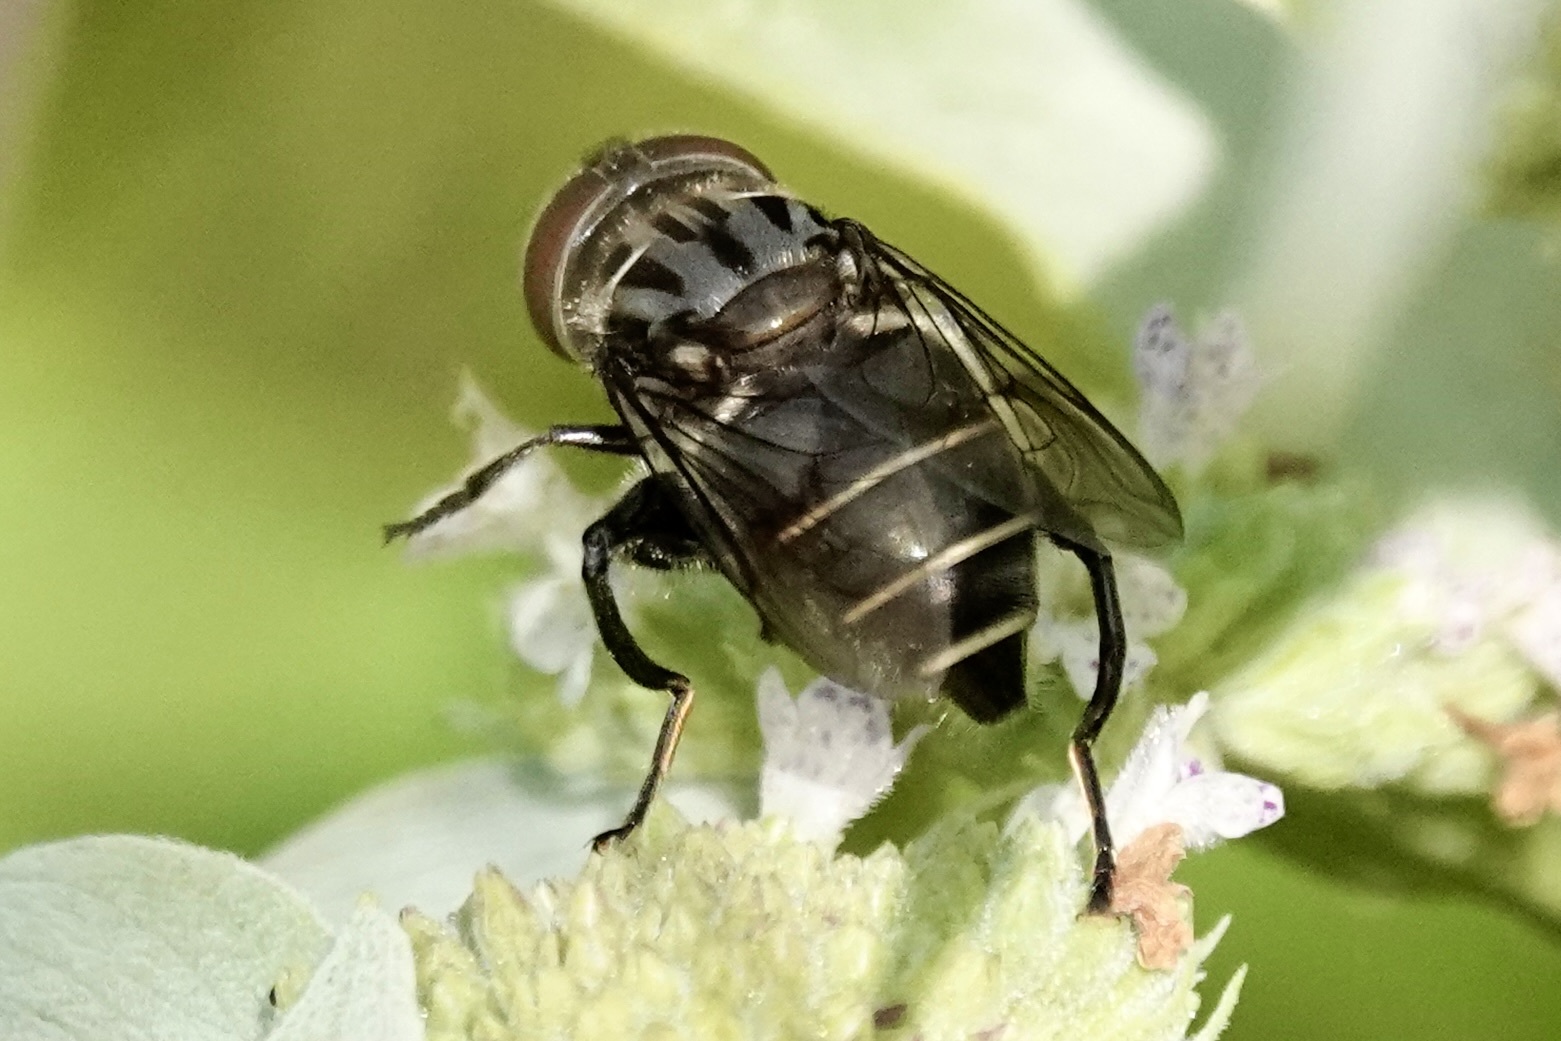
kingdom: Animalia
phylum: Arthropoda
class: Insecta
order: Diptera
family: Syrphidae
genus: Palpada
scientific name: Palpada furcata
